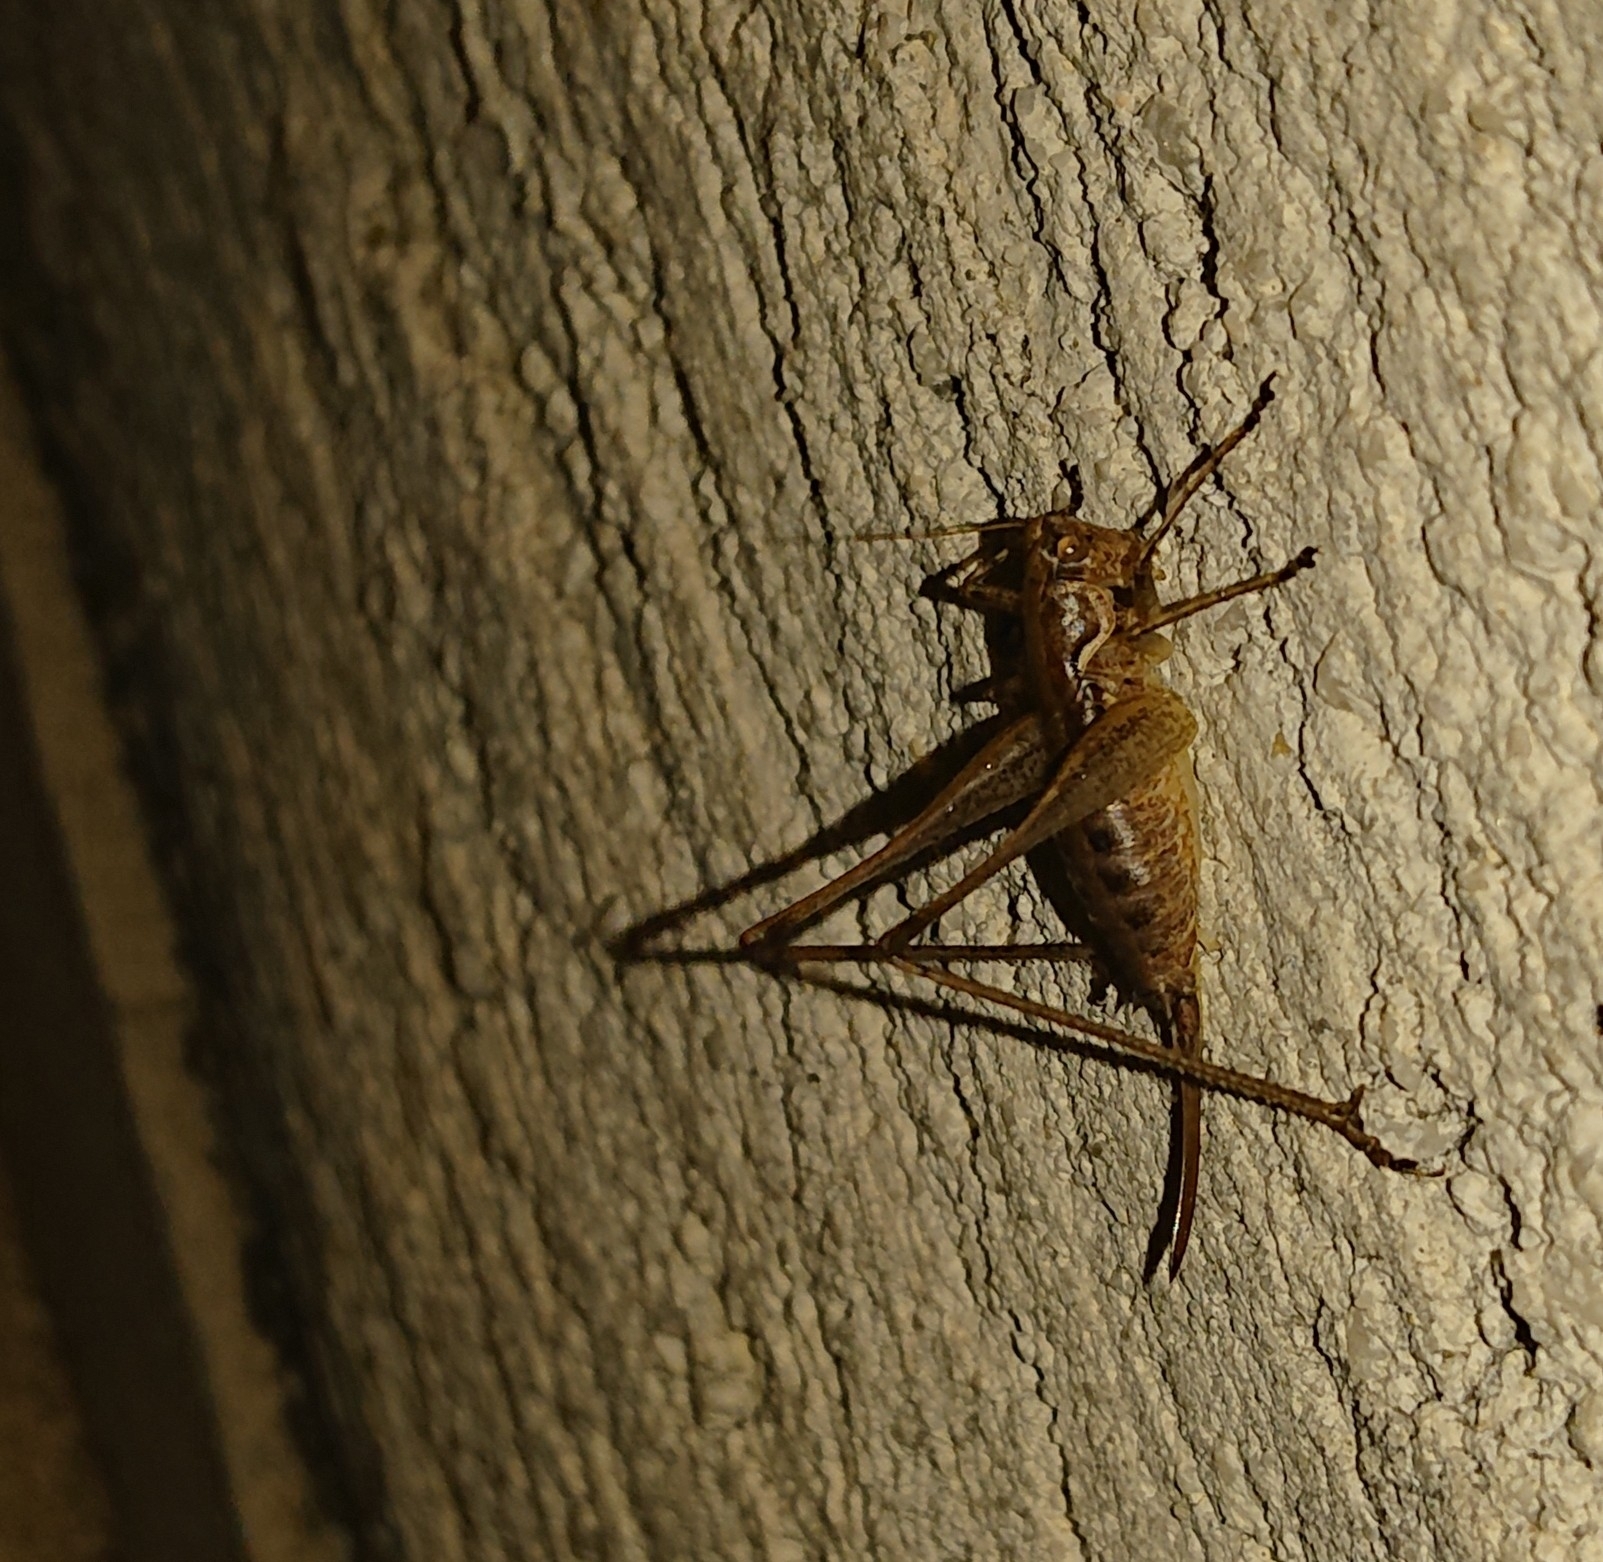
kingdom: Animalia
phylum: Arthropoda
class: Insecta
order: Orthoptera
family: Tettigoniidae
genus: Rhacocleis
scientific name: Rhacocleis germanica
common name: Mediterranean bush-cricket
